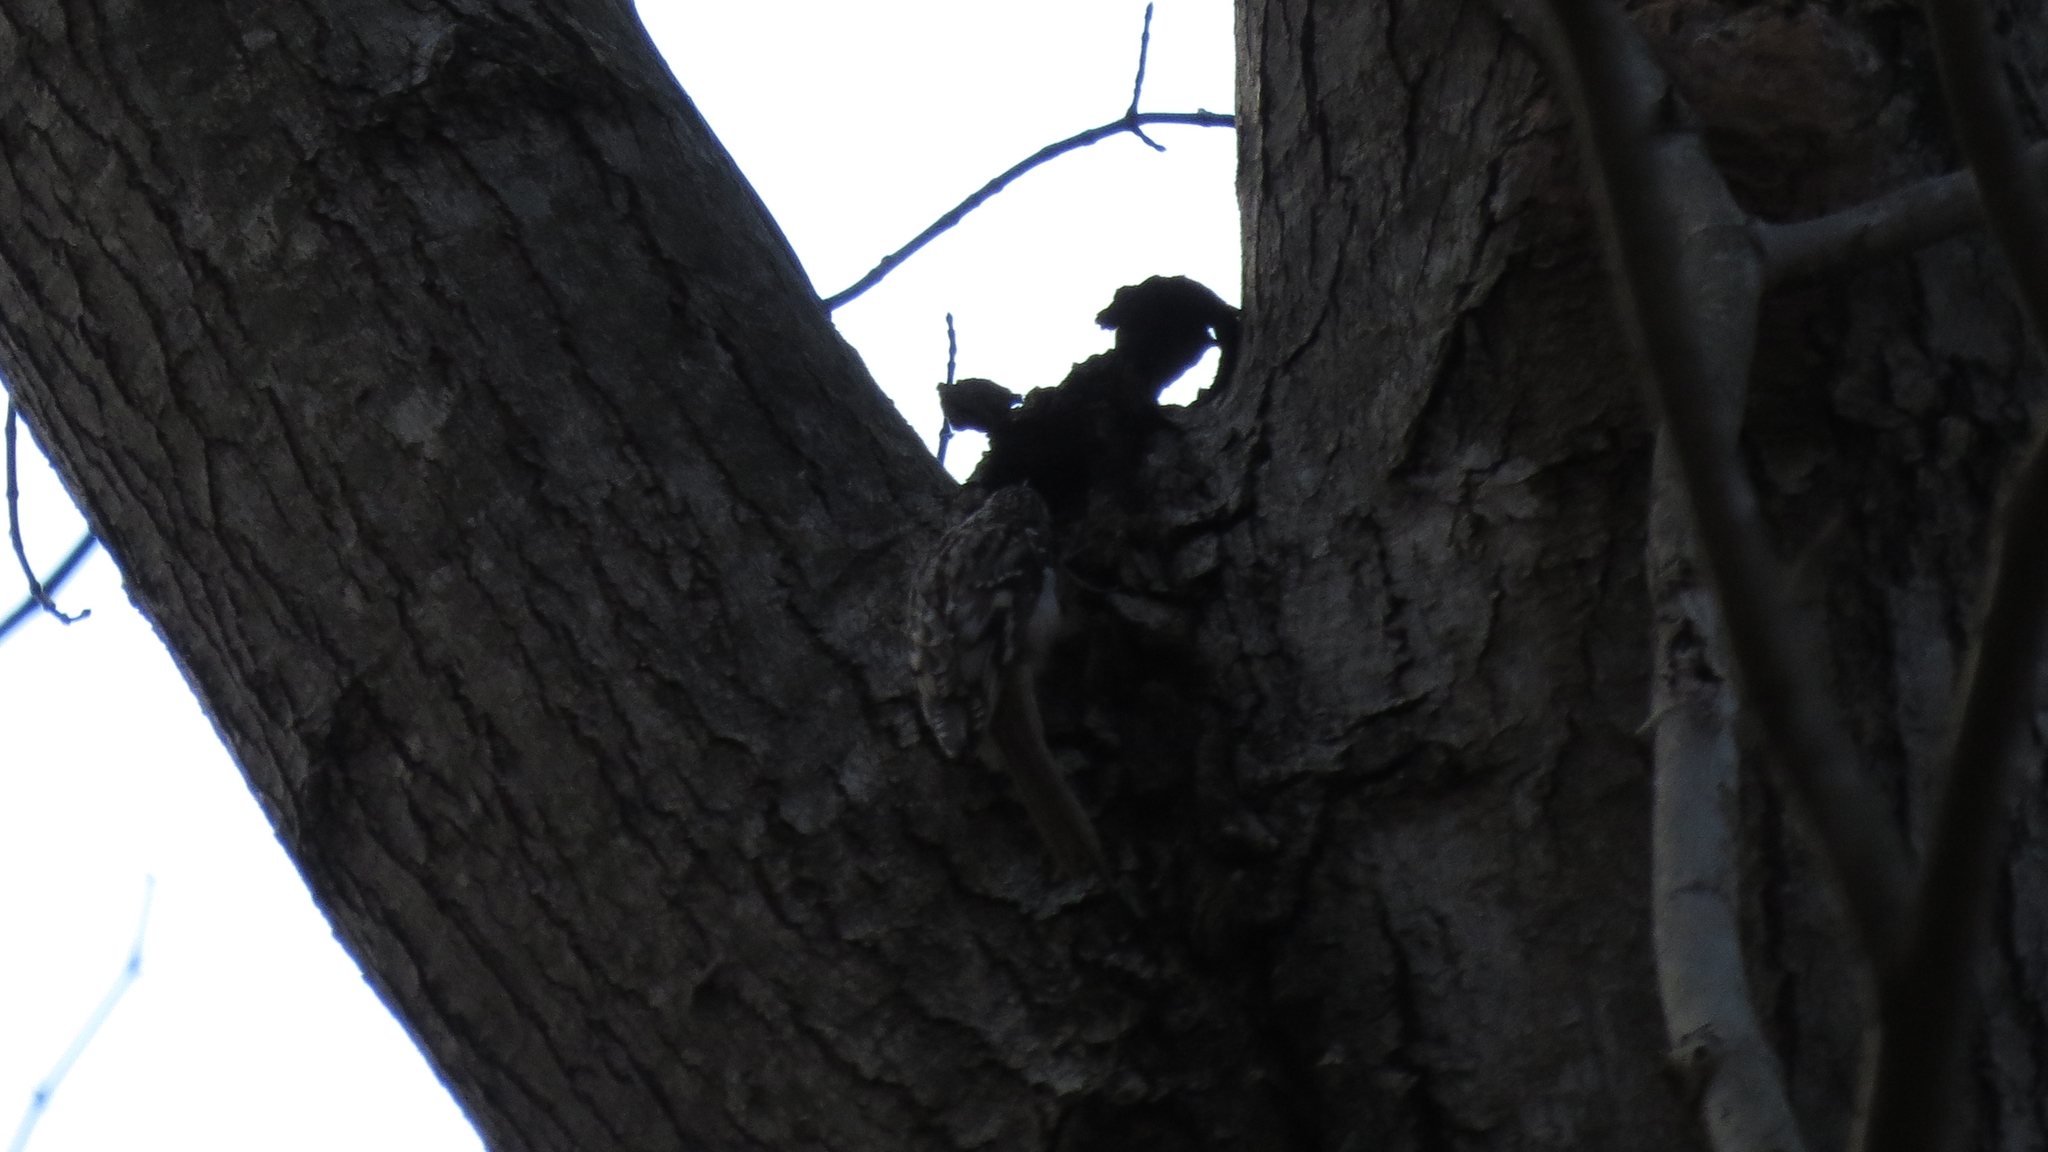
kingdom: Animalia
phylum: Chordata
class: Aves
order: Passeriformes
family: Certhiidae
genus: Certhia
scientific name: Certhia americana
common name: Brown creeper
